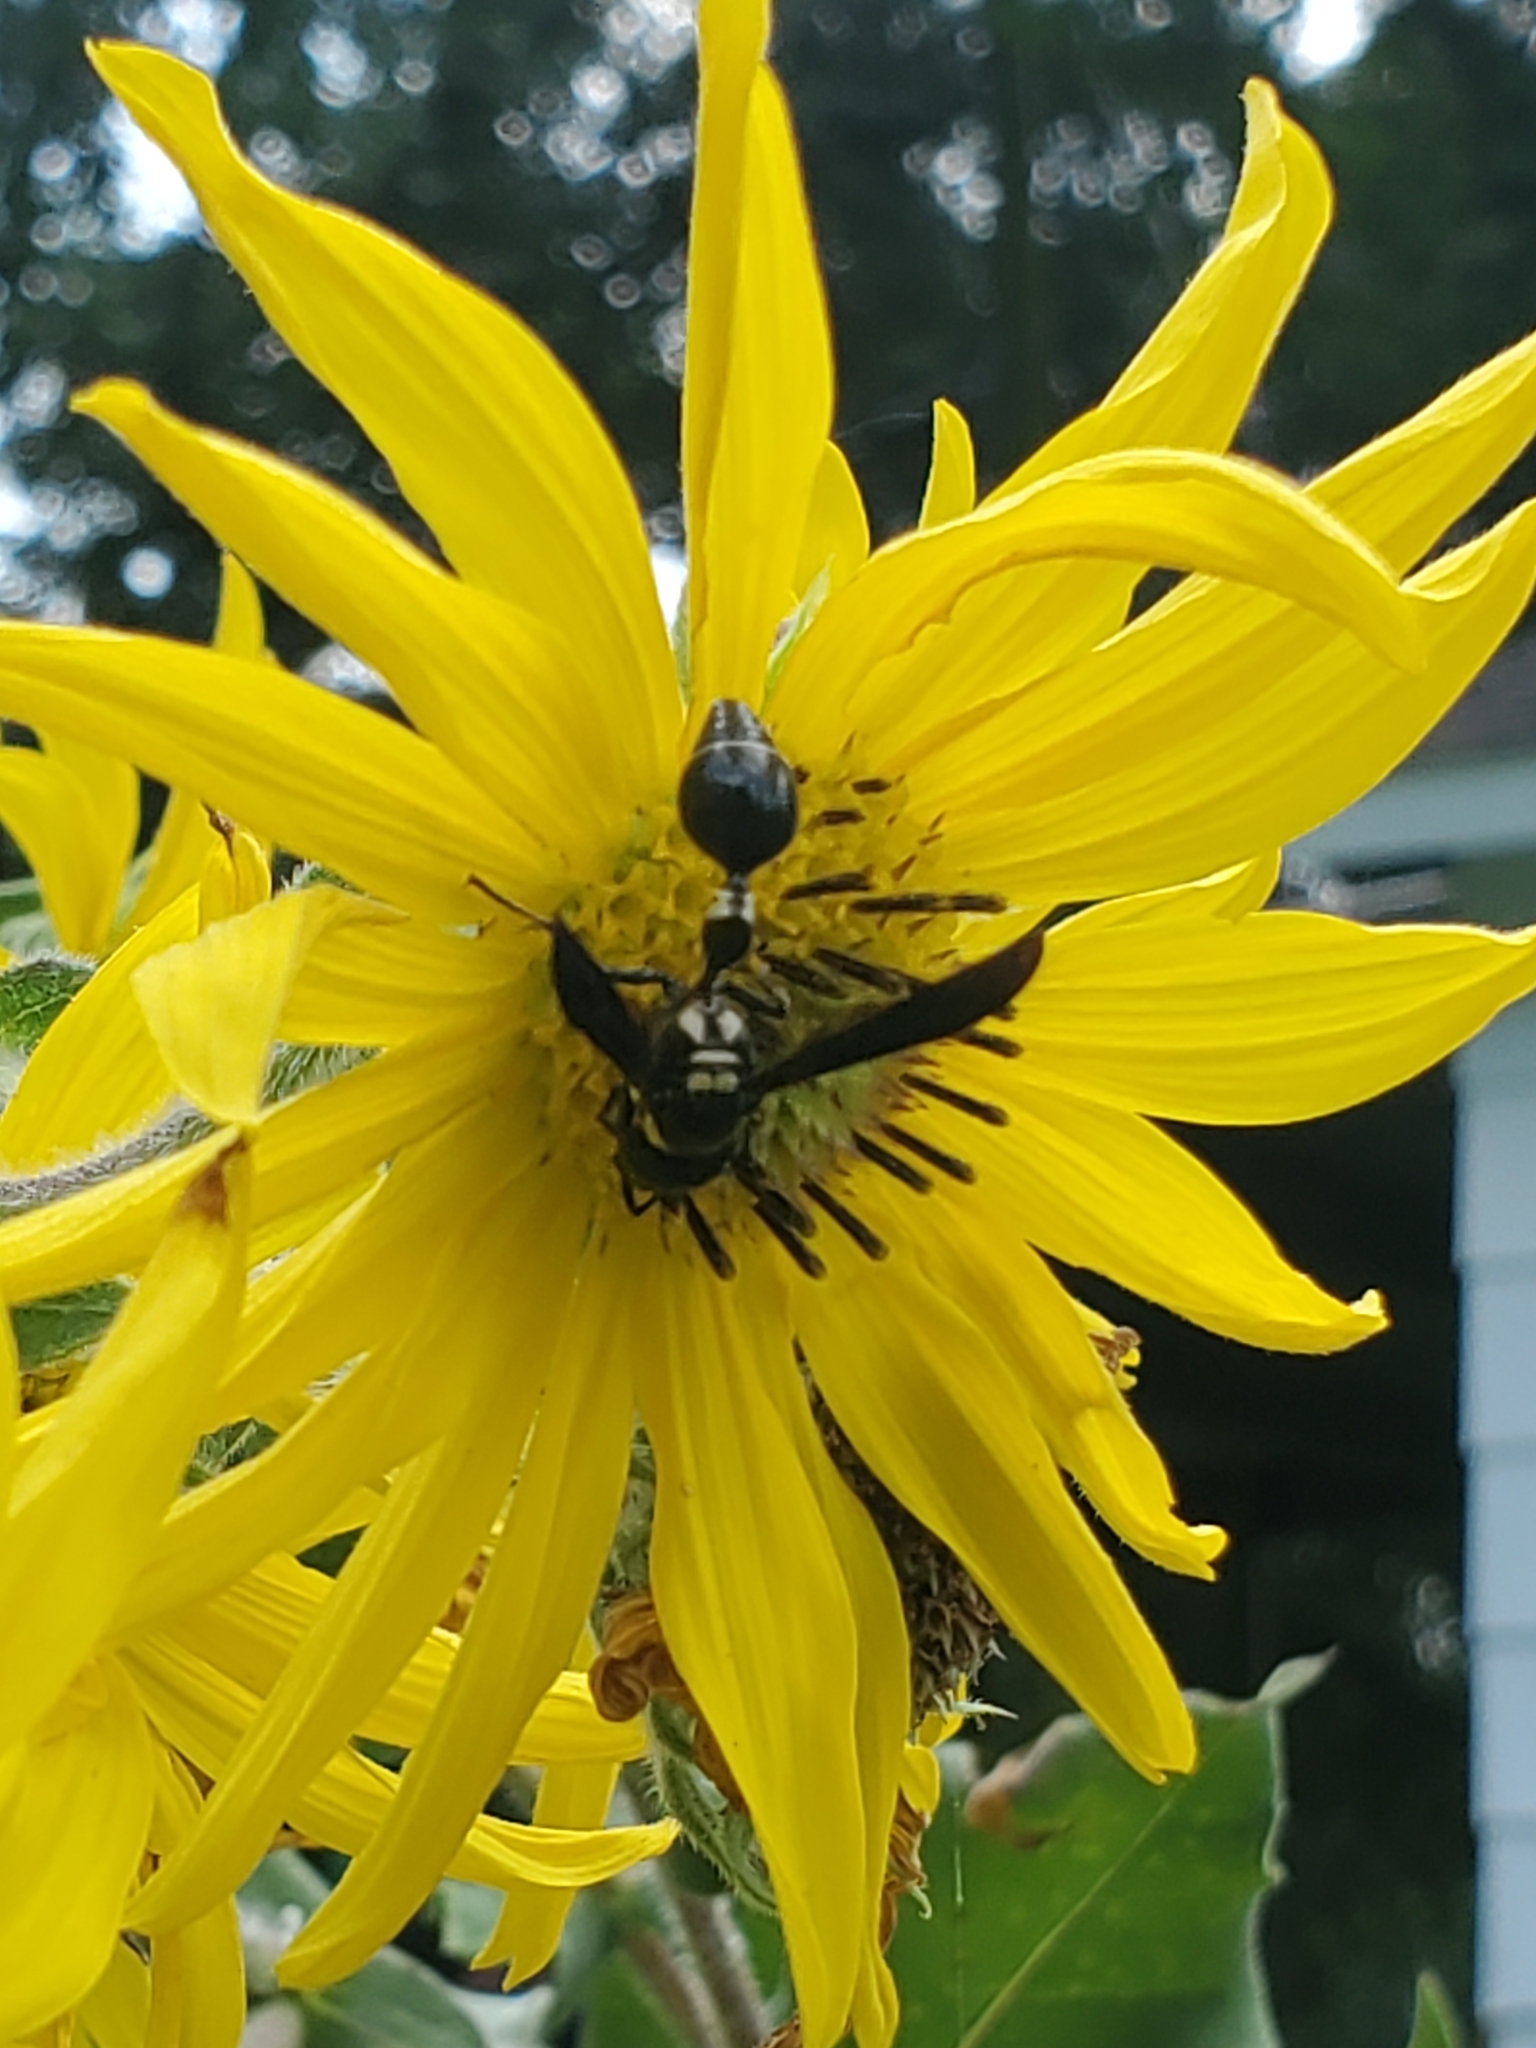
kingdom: Animalia
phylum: Arthropoda
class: Insecta
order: Hymenoptera
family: Eumenidae
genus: Zethus
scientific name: Zethus spinipes
